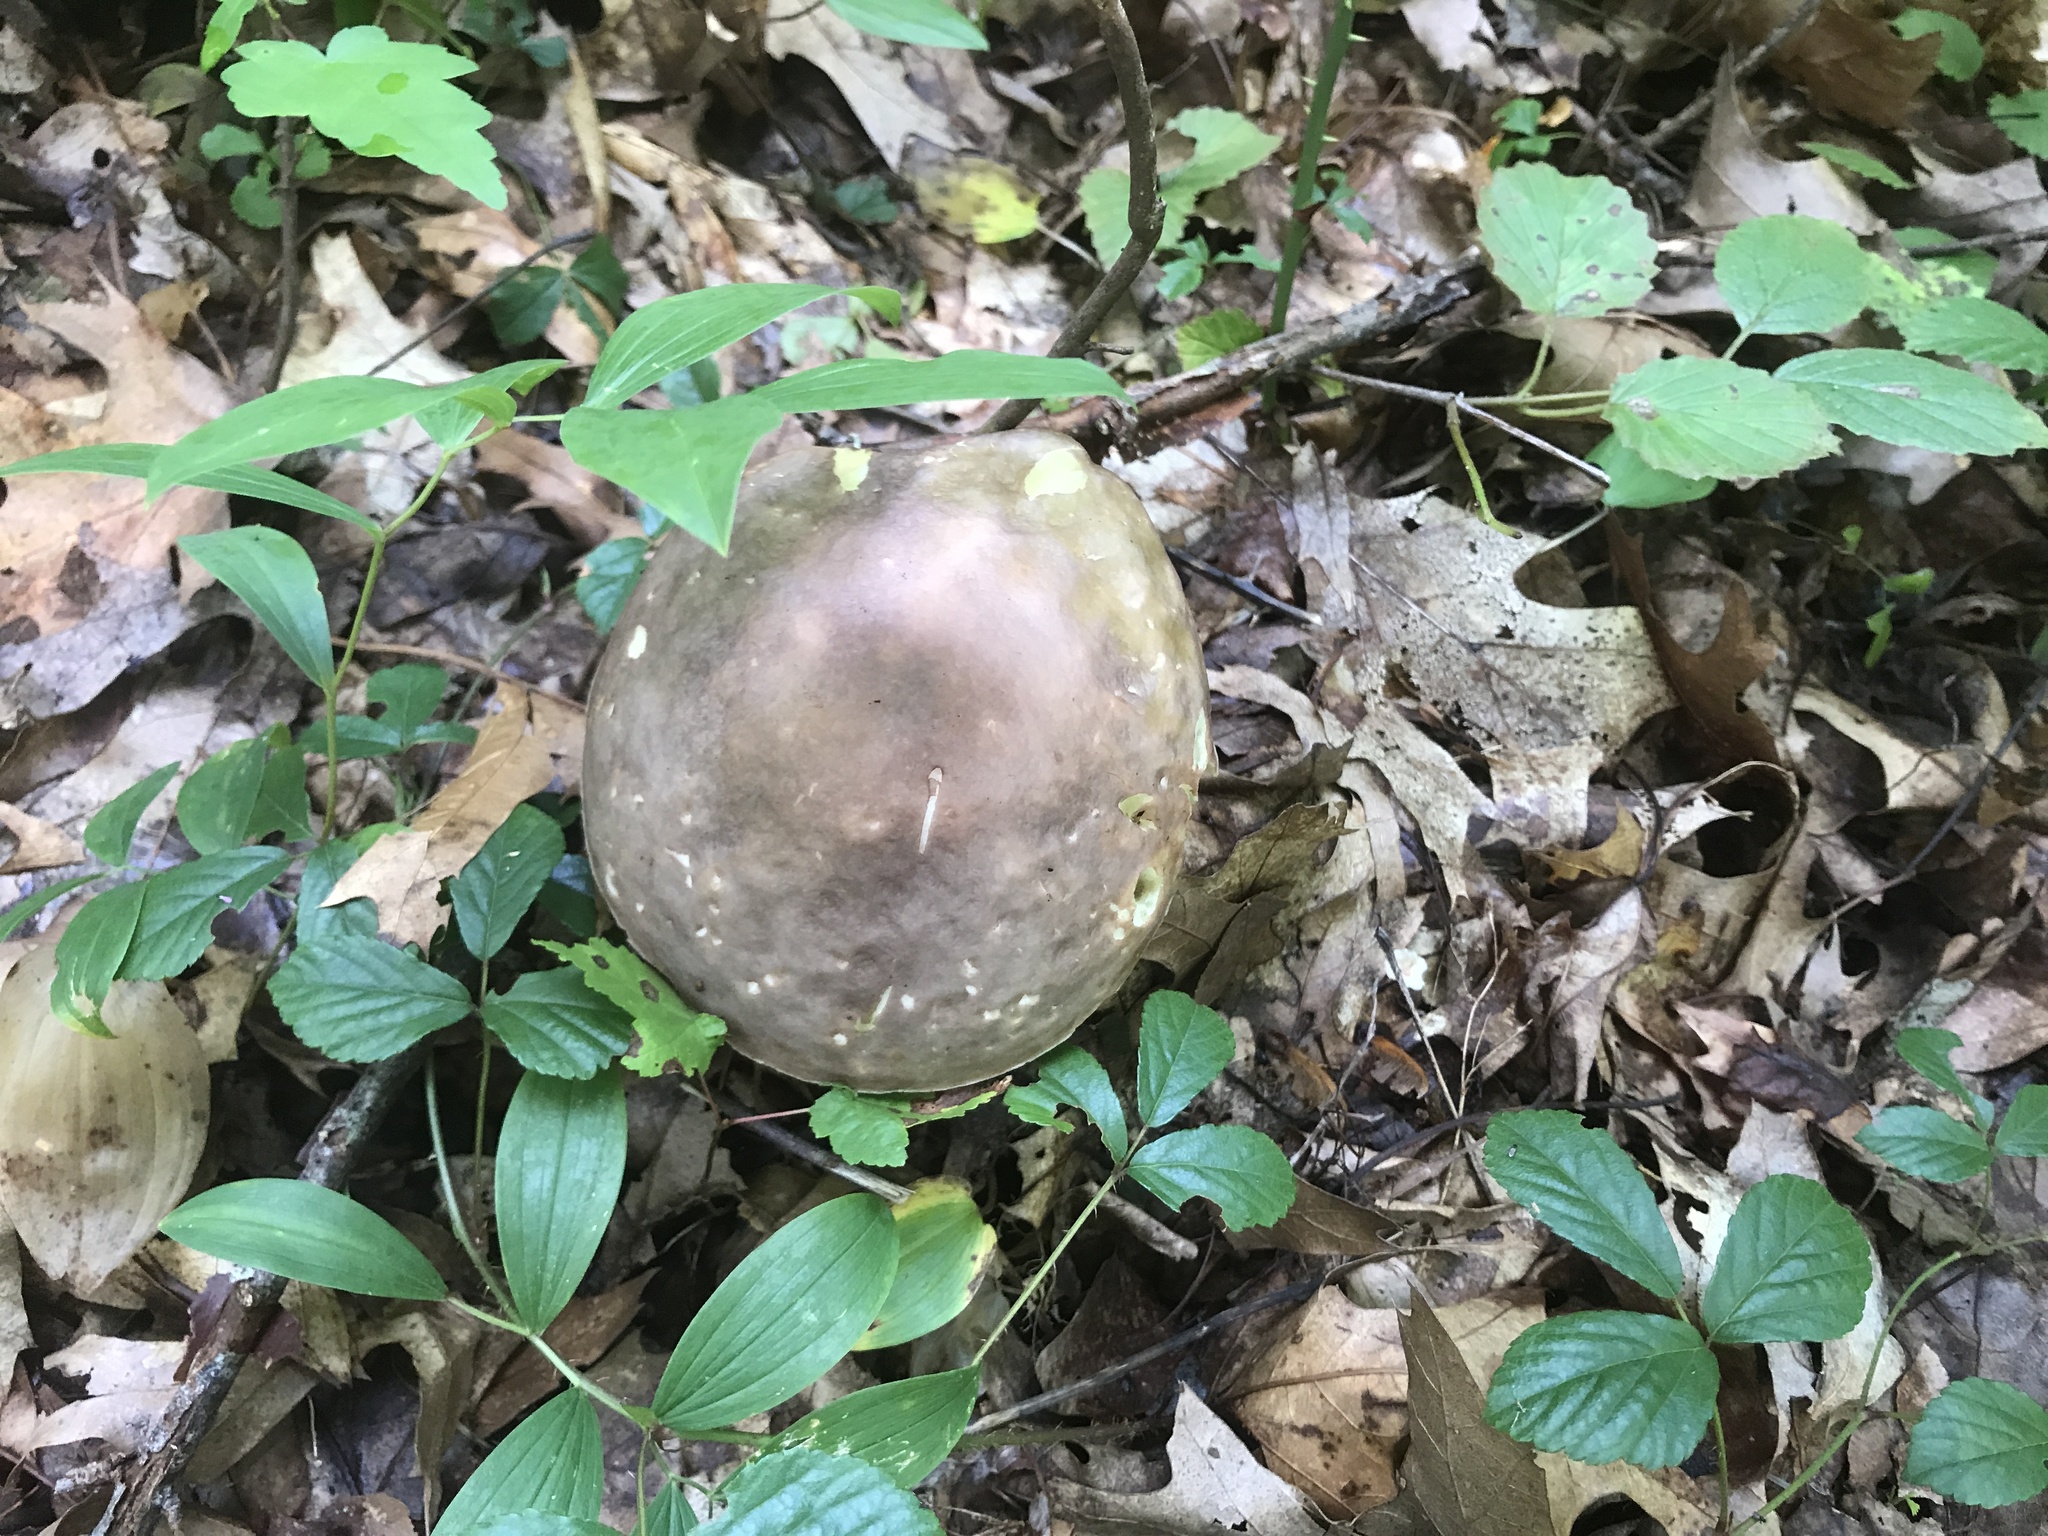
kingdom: Fungi
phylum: Basidiomycota
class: Agaricomycetes
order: Boletales
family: Boletaceae
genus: Xanthoconium
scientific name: Xanthoconium separans
